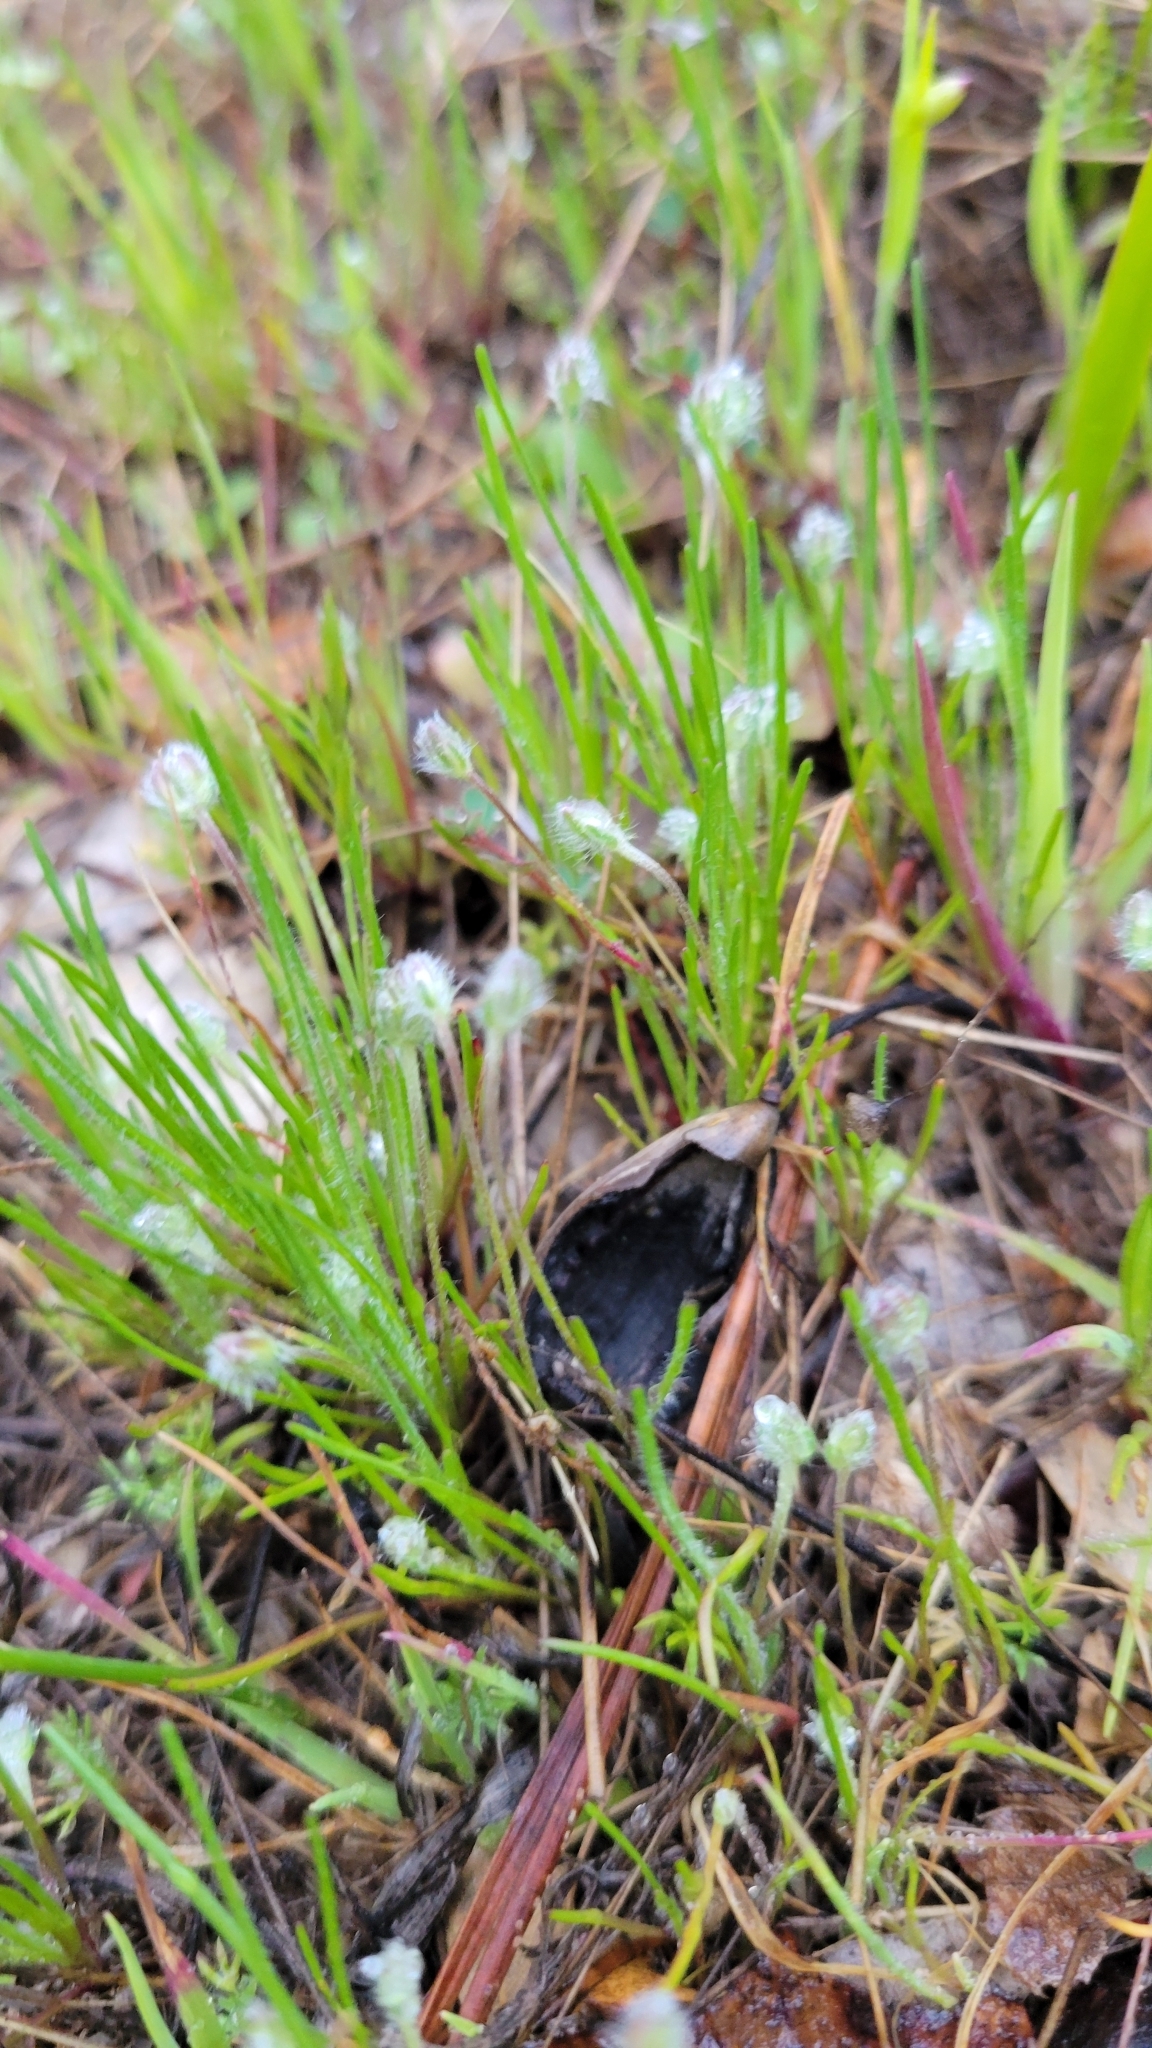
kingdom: Plantae
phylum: Tracheophyta
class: Magnoliopsida
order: Lamiales
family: Plantaginaceae
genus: Plantago
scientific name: Plantago erecta
